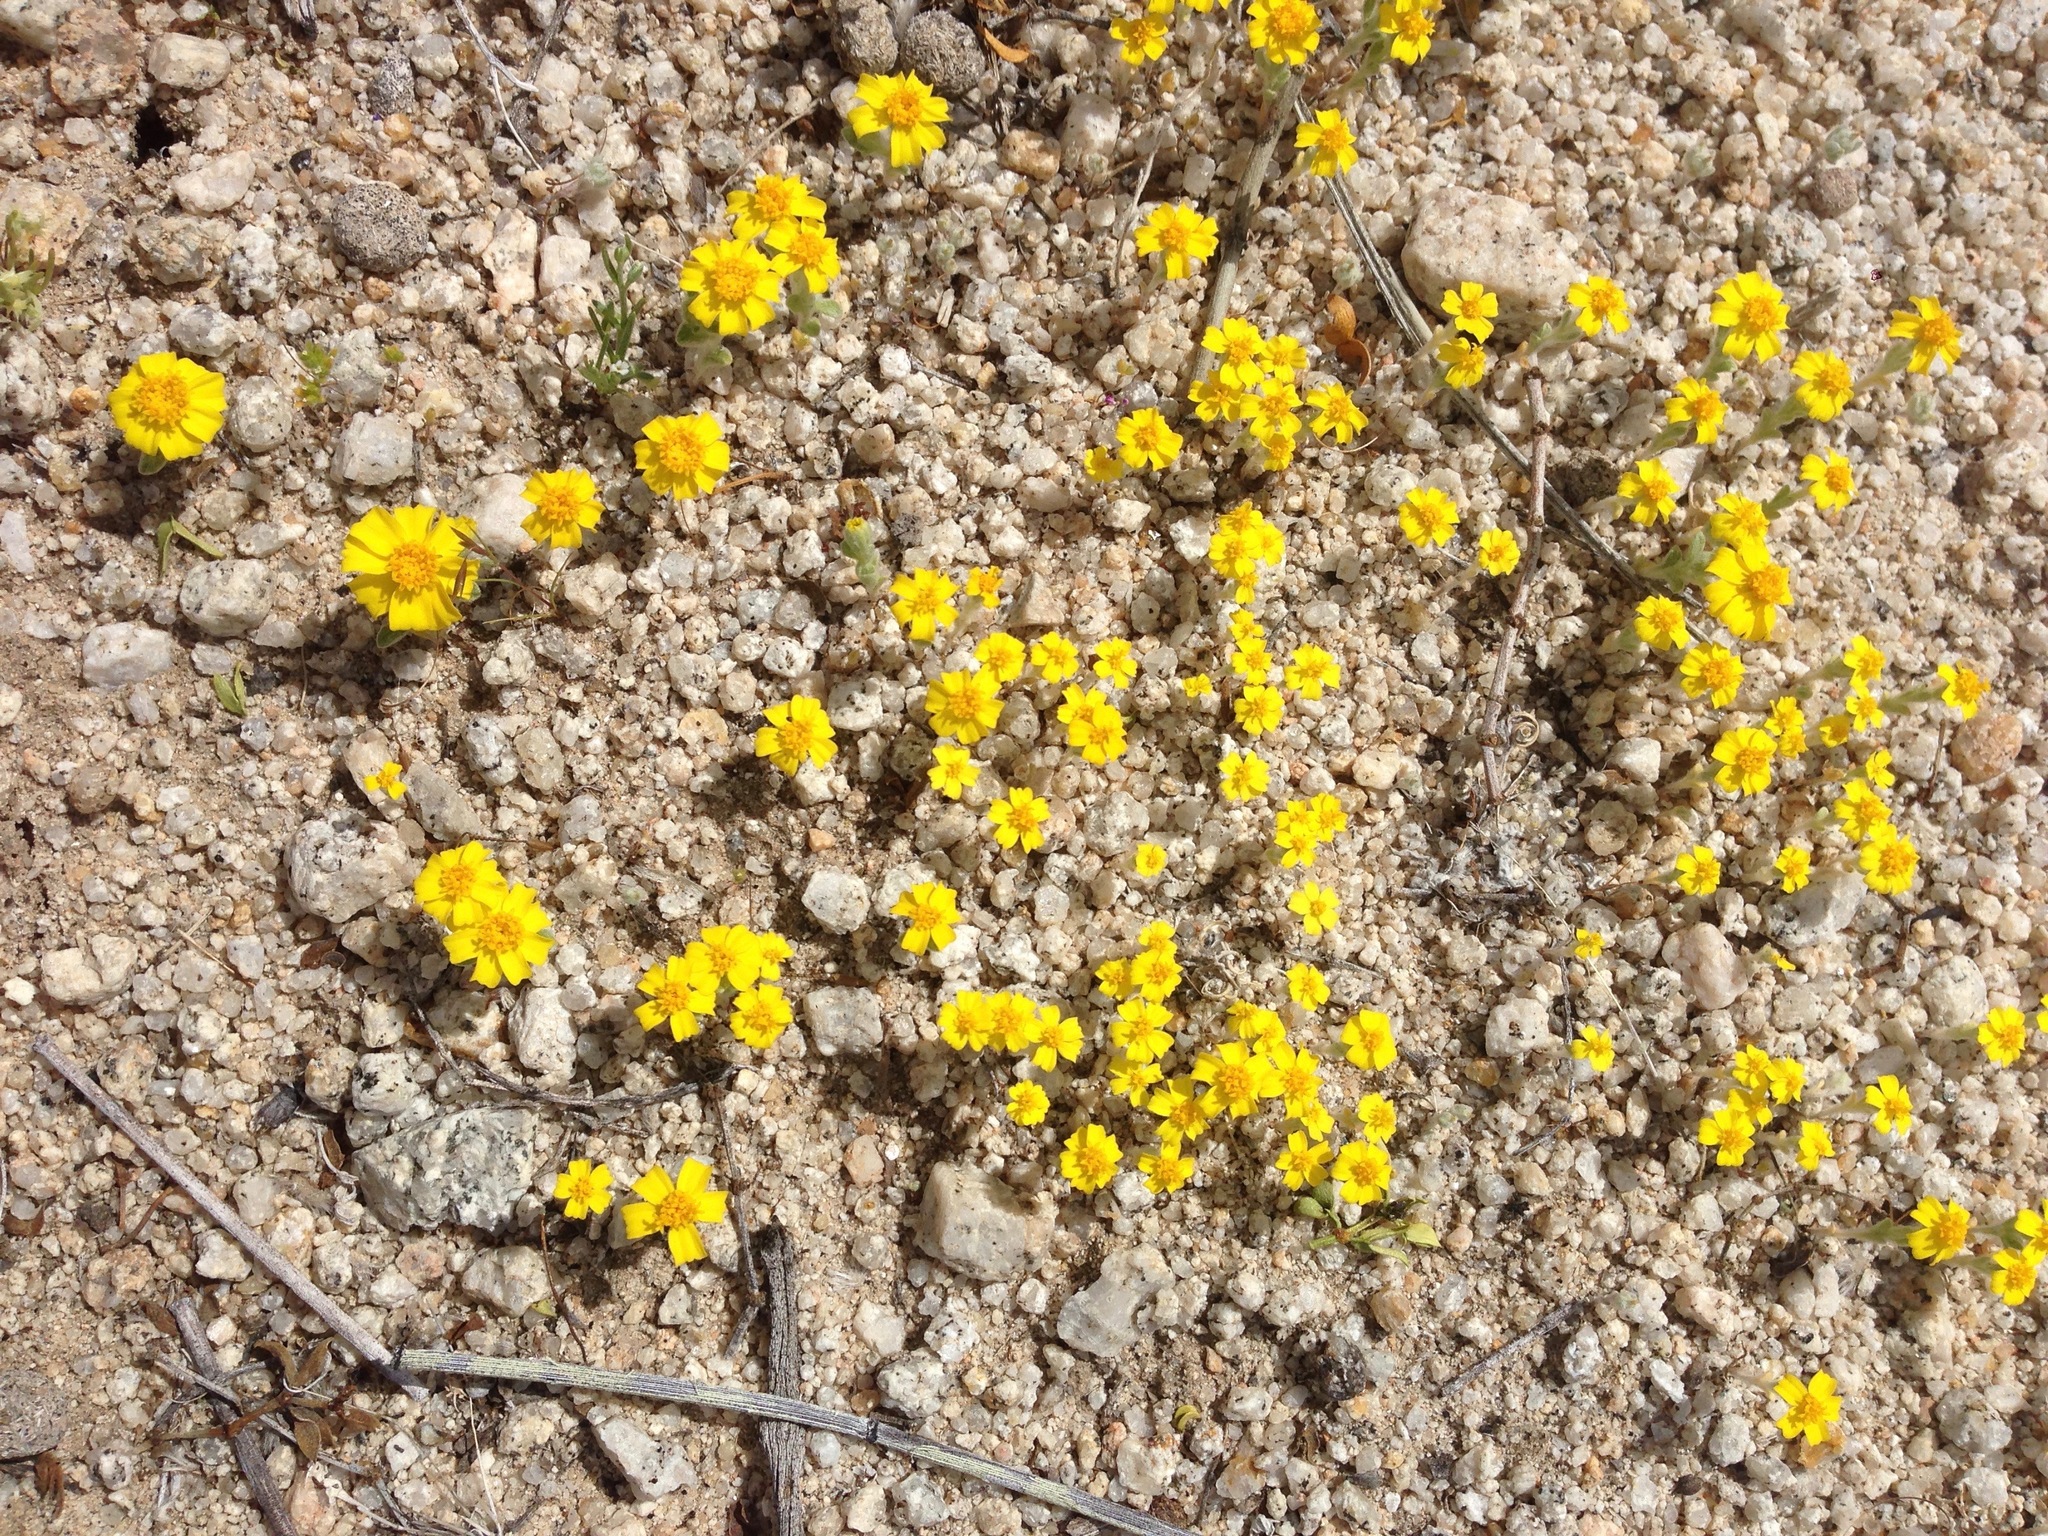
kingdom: Plantae
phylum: Tracheophyta
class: Magnoliopsida
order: Asterales
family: Asteraceae
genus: Eriophyllum
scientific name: Eriophyllum wallacei
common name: Wallace's woolly daisy
